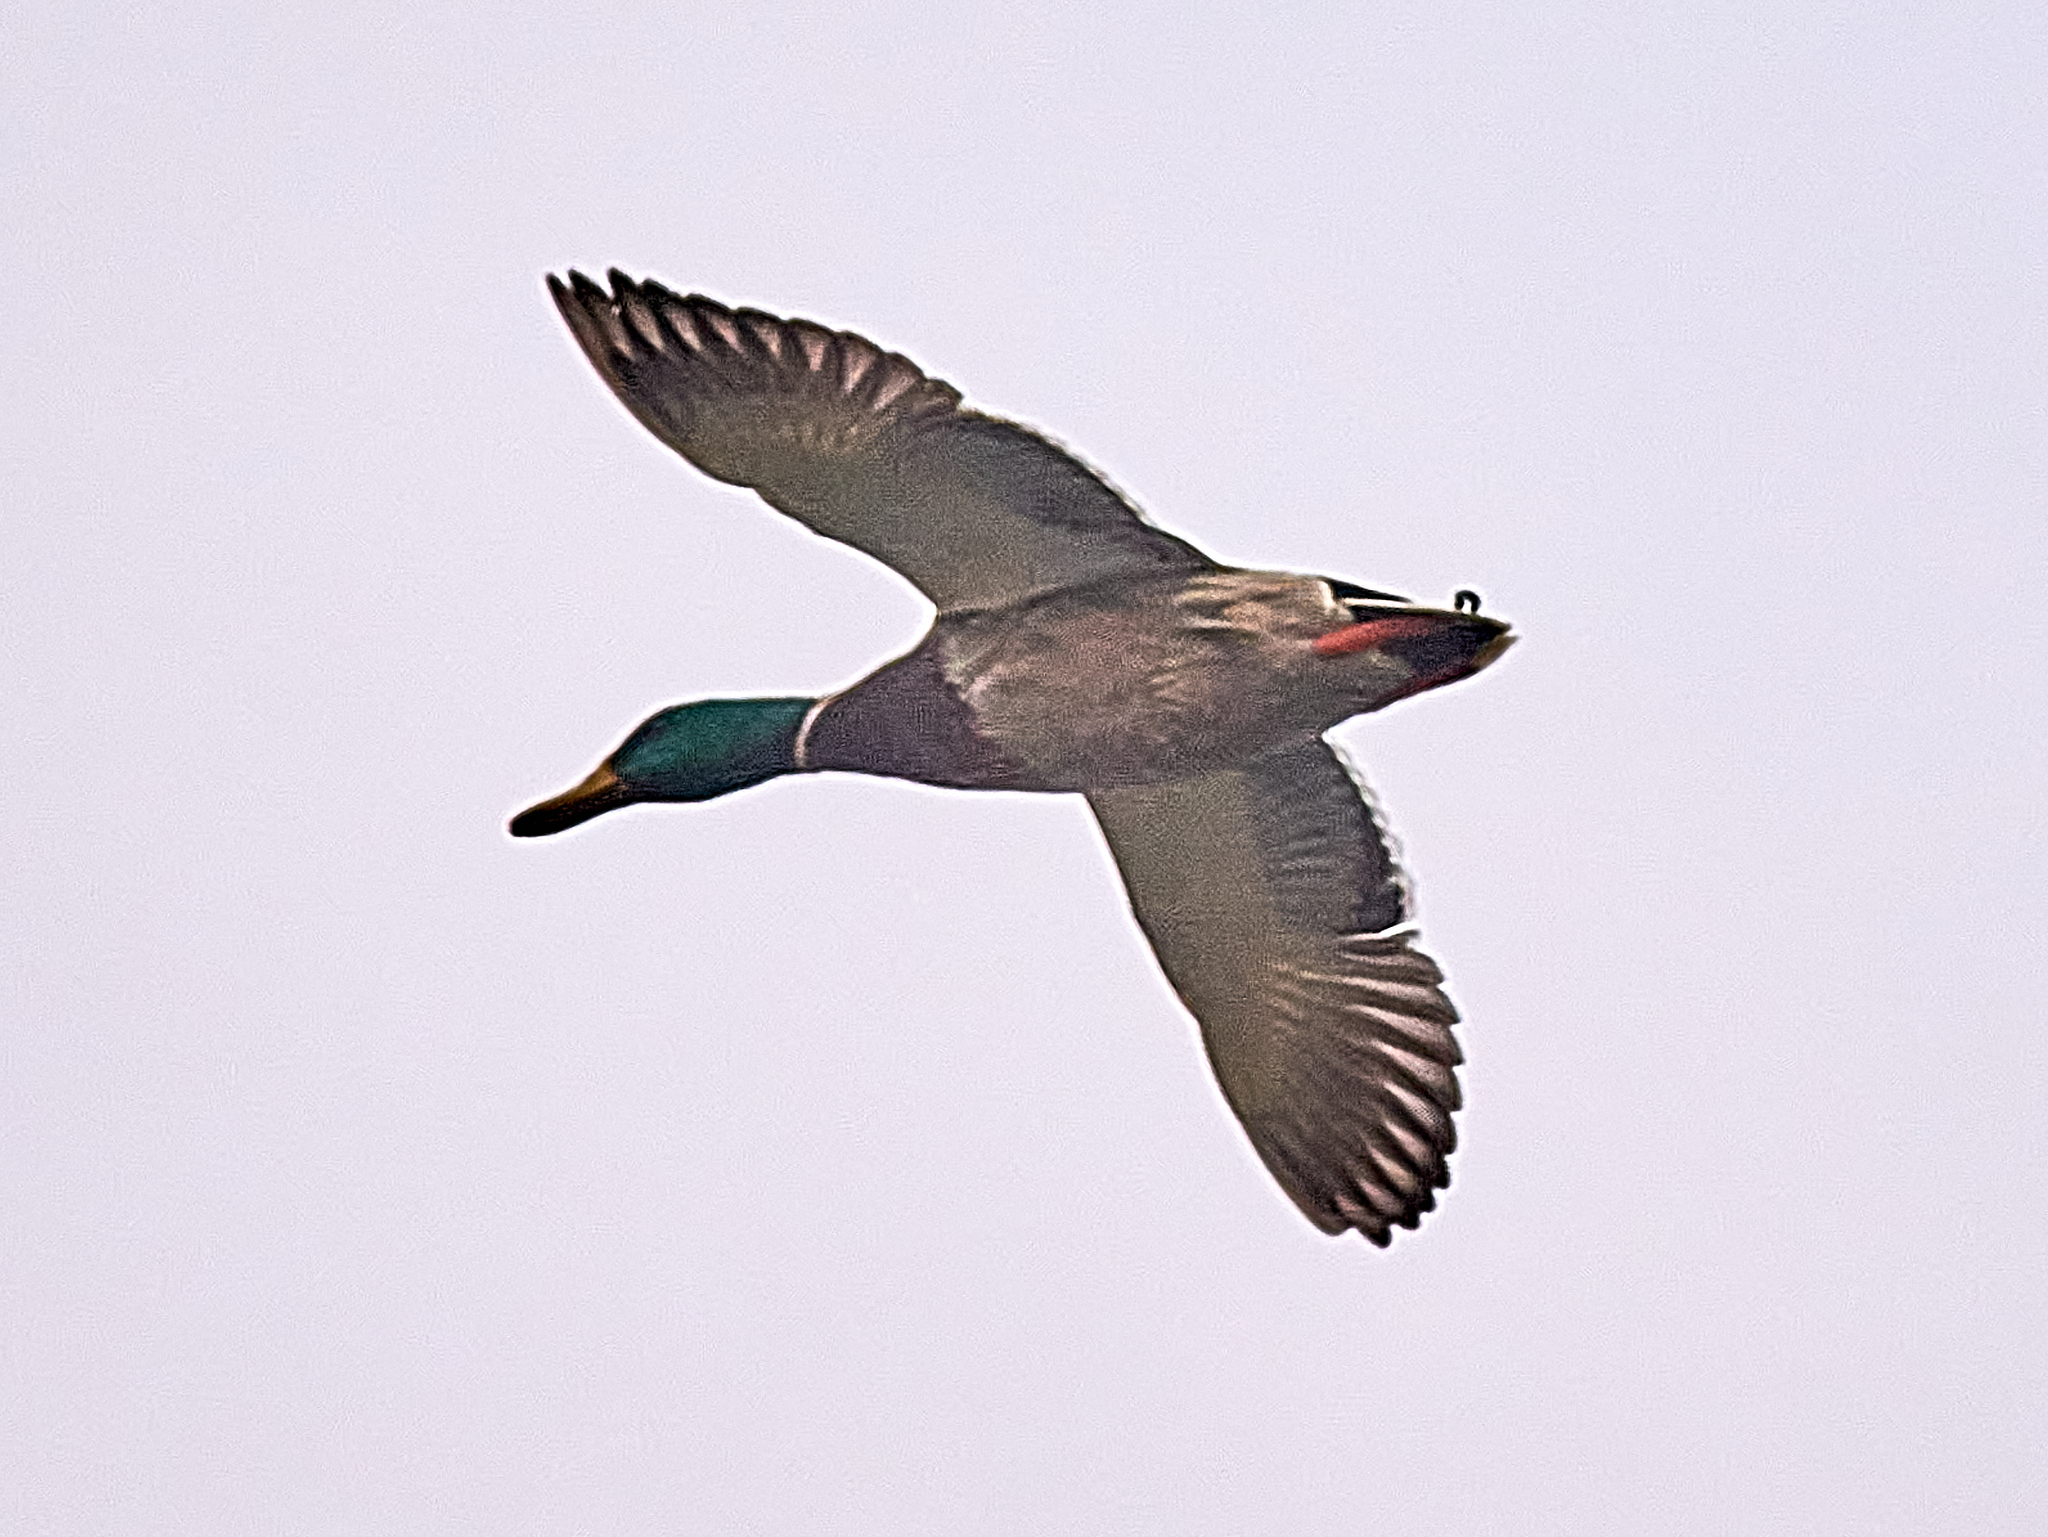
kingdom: Animalia
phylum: Chordata
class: Aves
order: Anseriformes
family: Anatidae
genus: Anas
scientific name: Anas platyrhynchos
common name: Mallard
